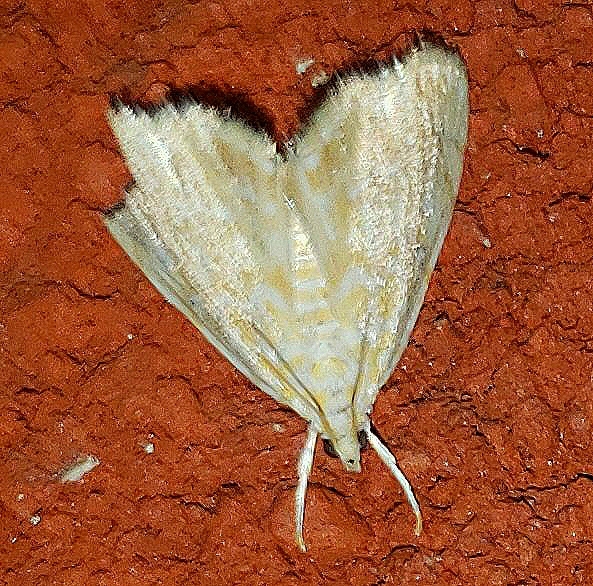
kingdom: Animalia
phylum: Arthropoda
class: Insecta
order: Lepidoptera
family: Crambidae
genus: Glaphyria
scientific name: Glaphyria glaphyralis
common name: Common glaphyria moth
